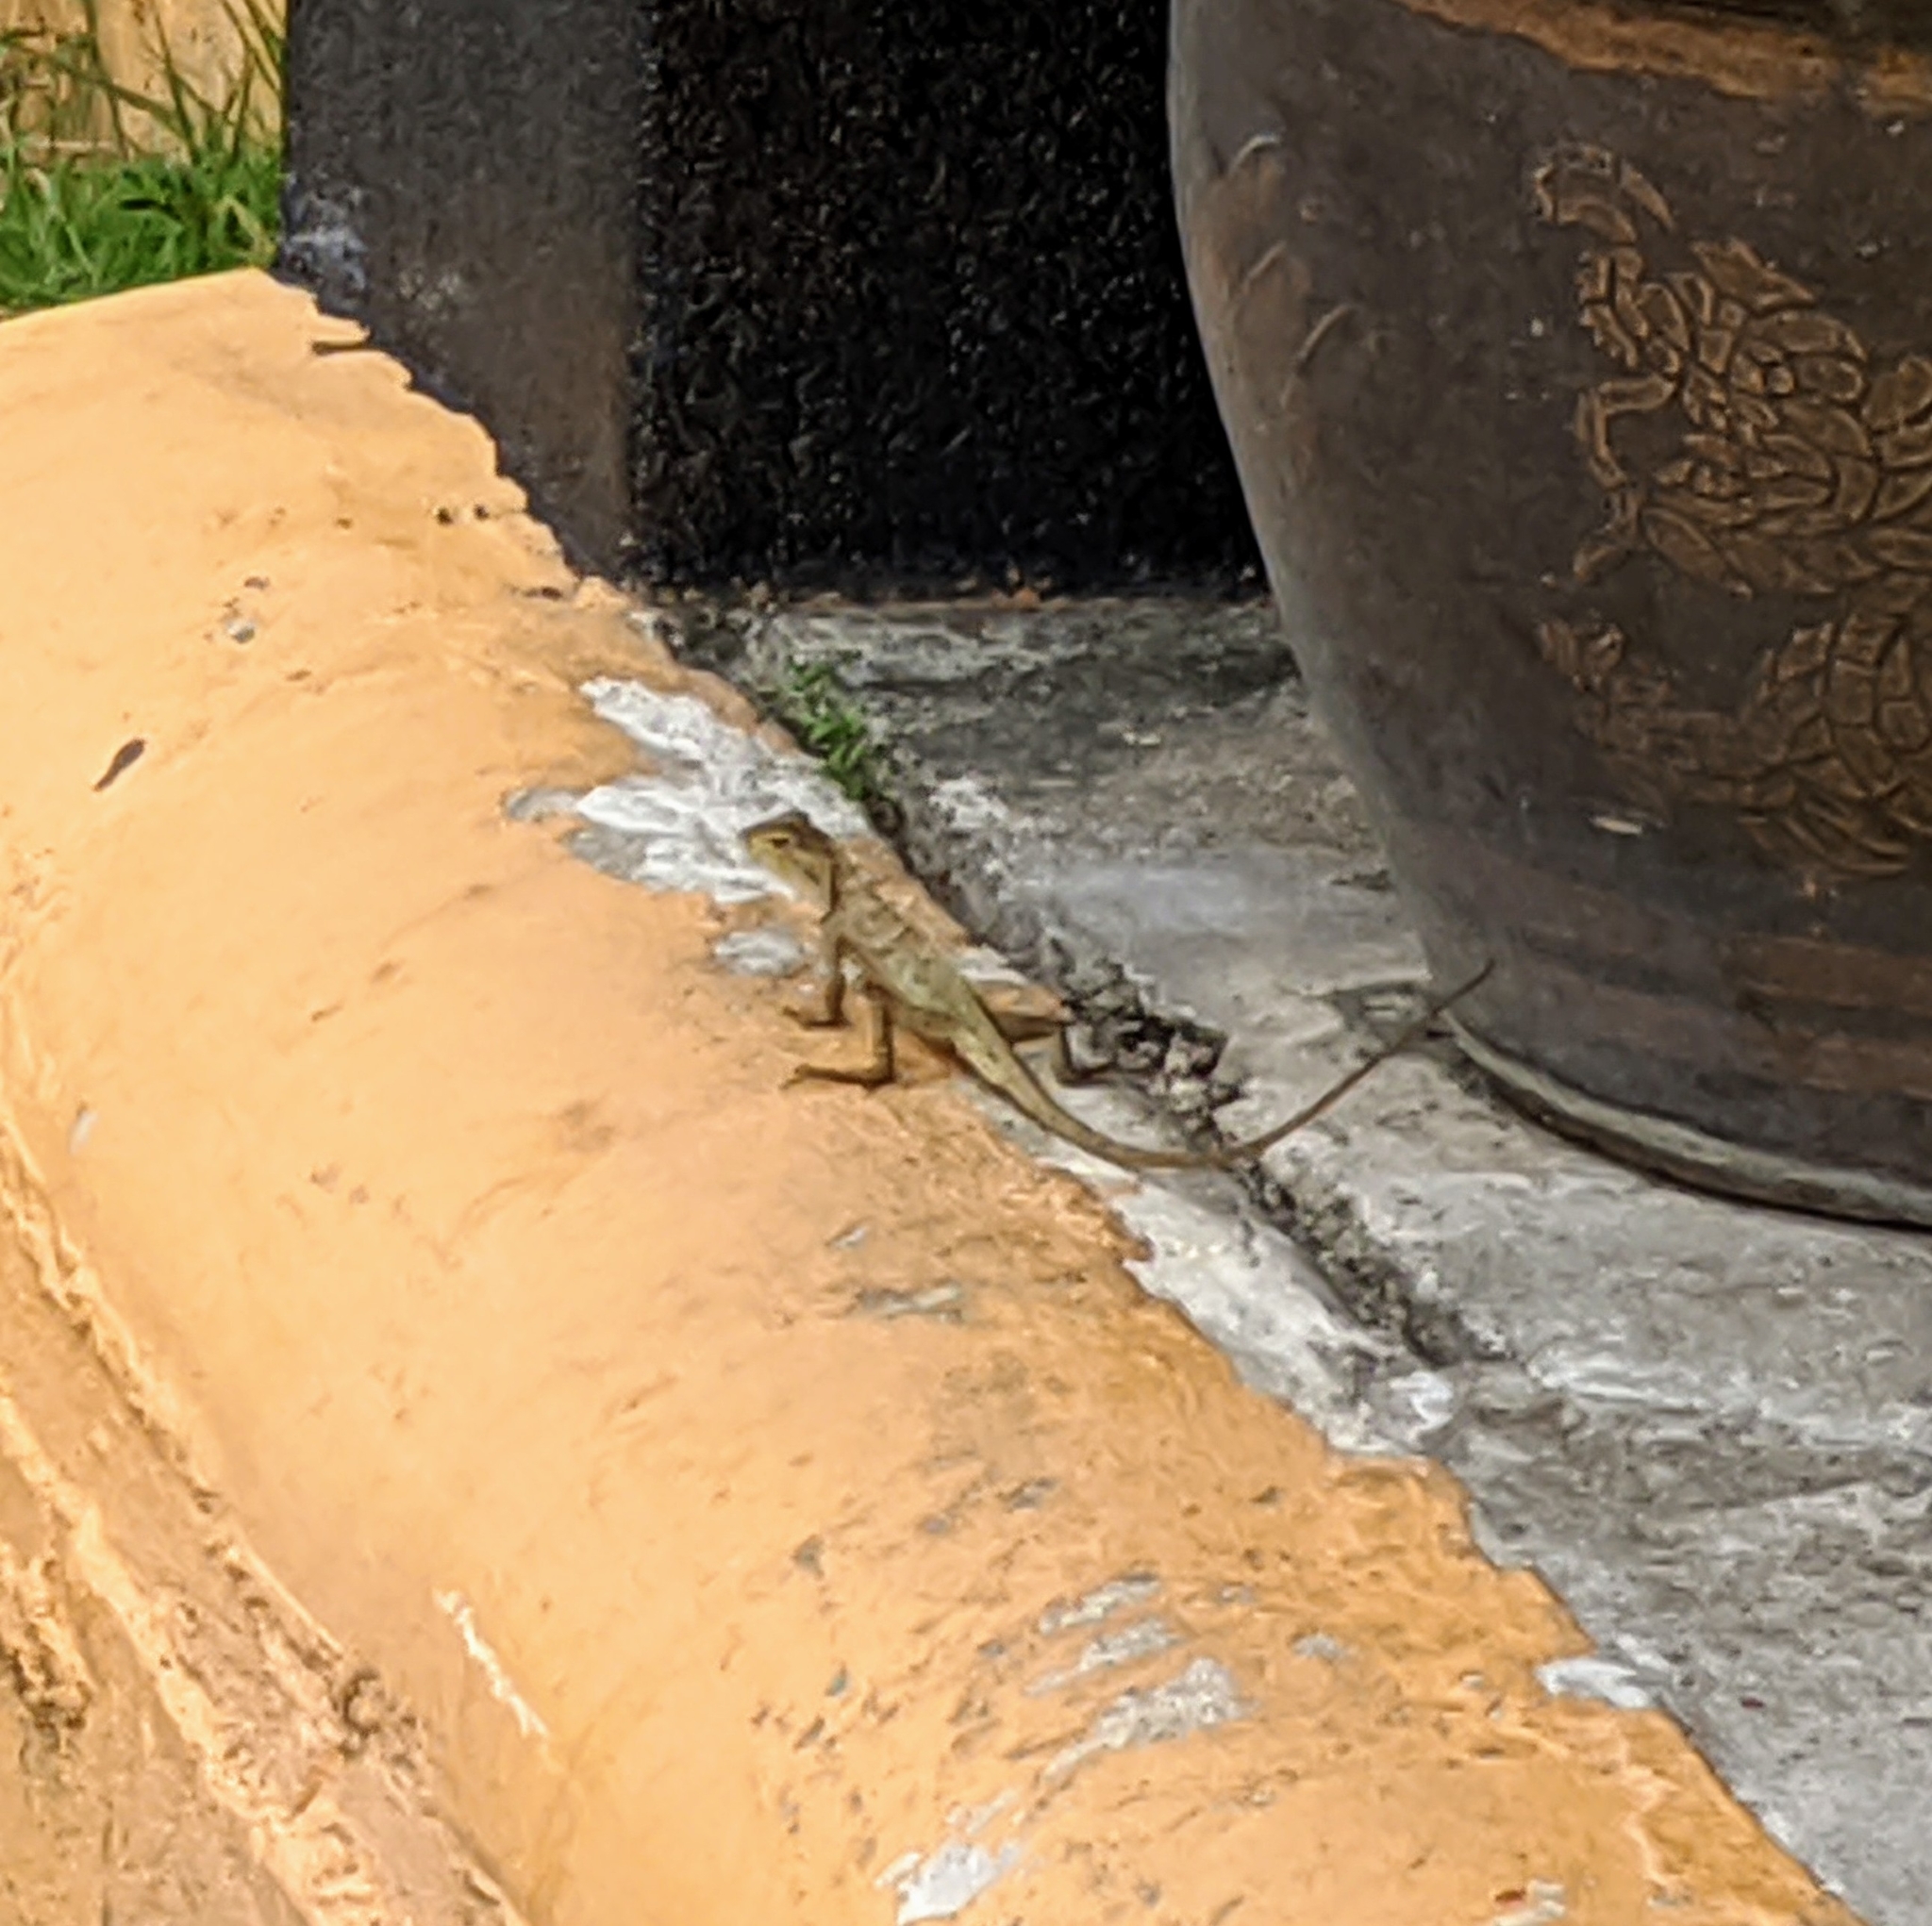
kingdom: Animalia
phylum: Chordata
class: Squamata
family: Agamidae
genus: Calotes
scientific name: Calotes versicolor
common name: Oriental garden lizard
